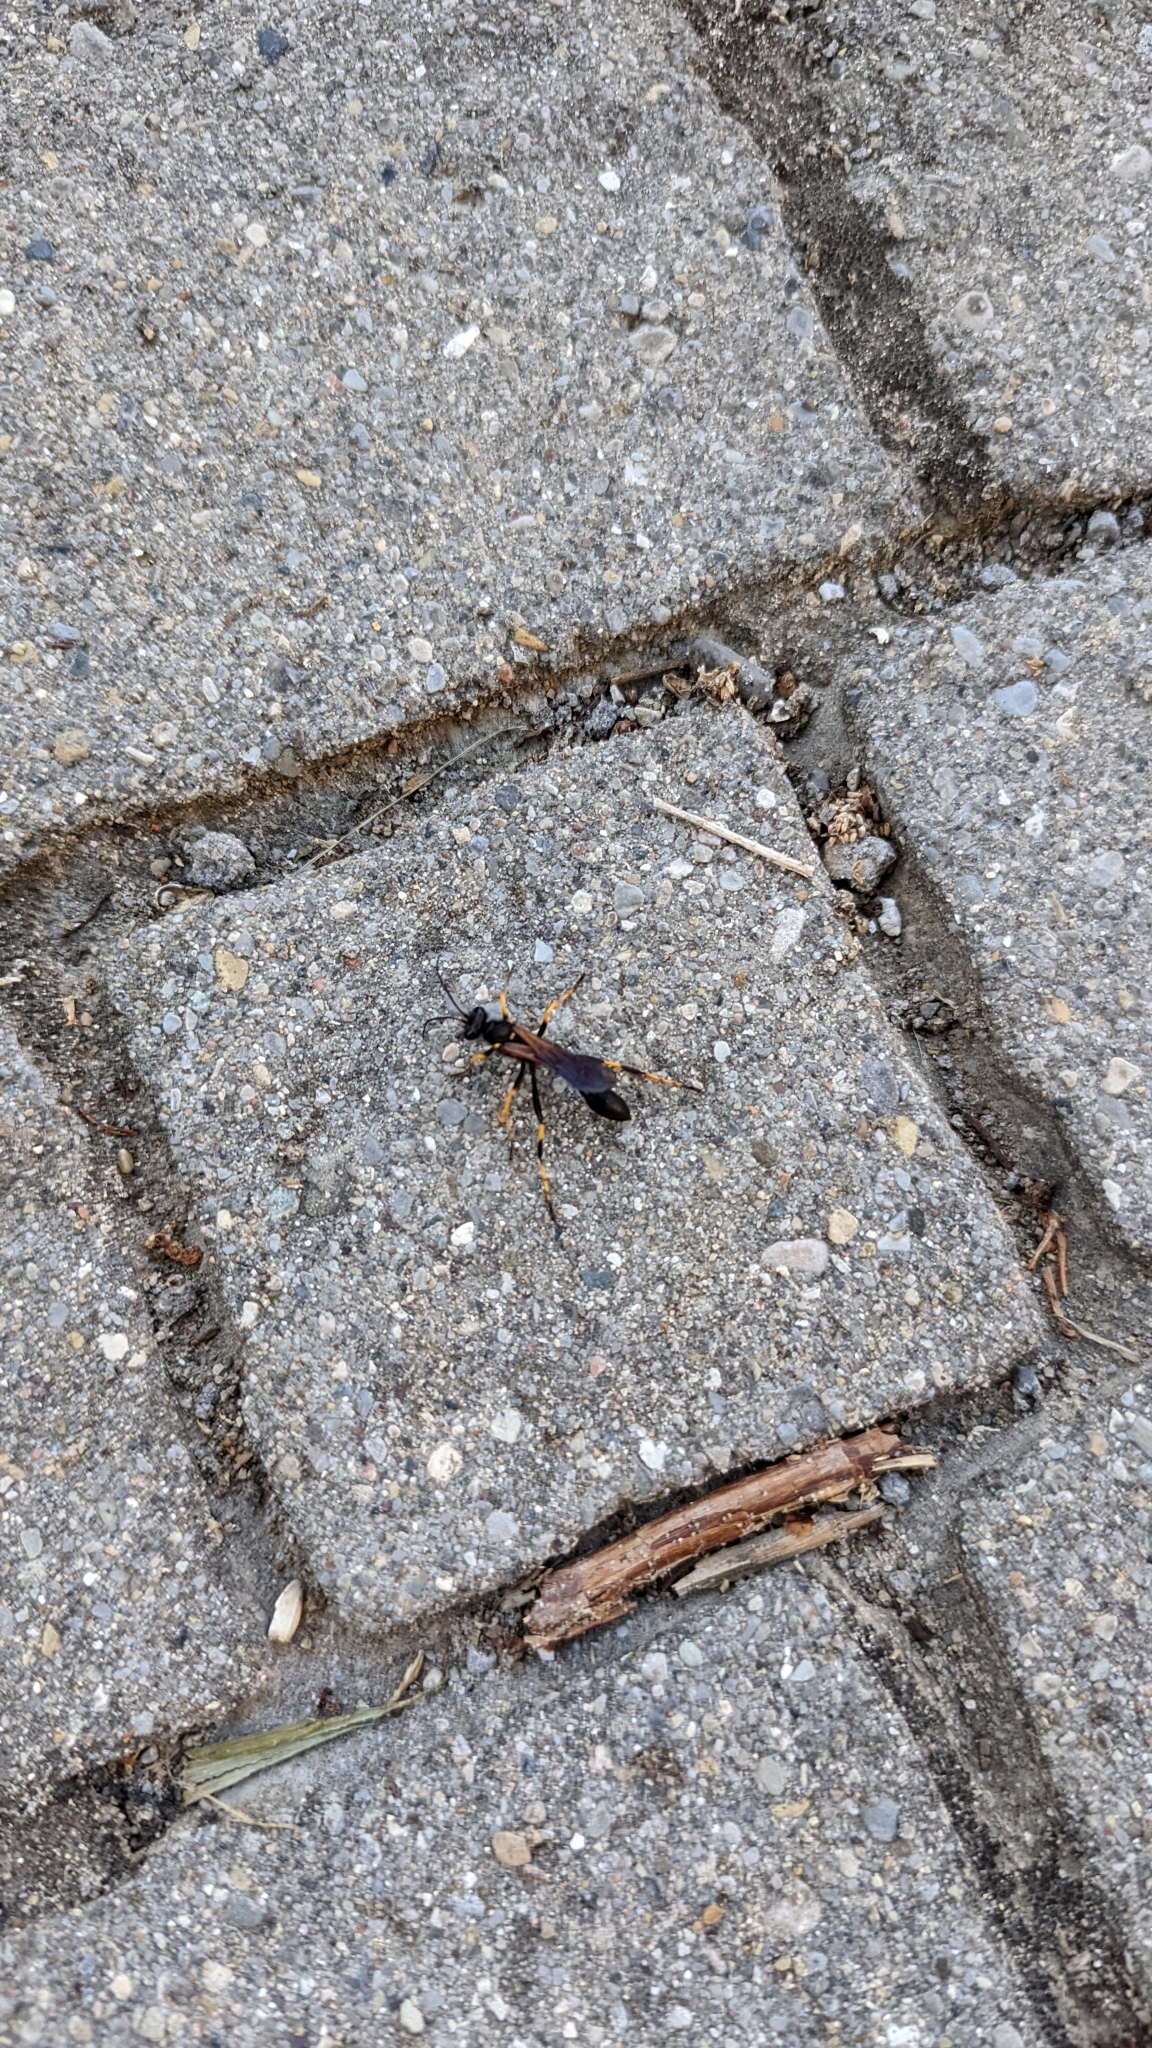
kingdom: Animalia
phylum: Arthropoda
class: Insecta
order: Hymenoptera
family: Sphecidae
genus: Sceliphron
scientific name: Sceliphron caementarium
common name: Mud dauber
